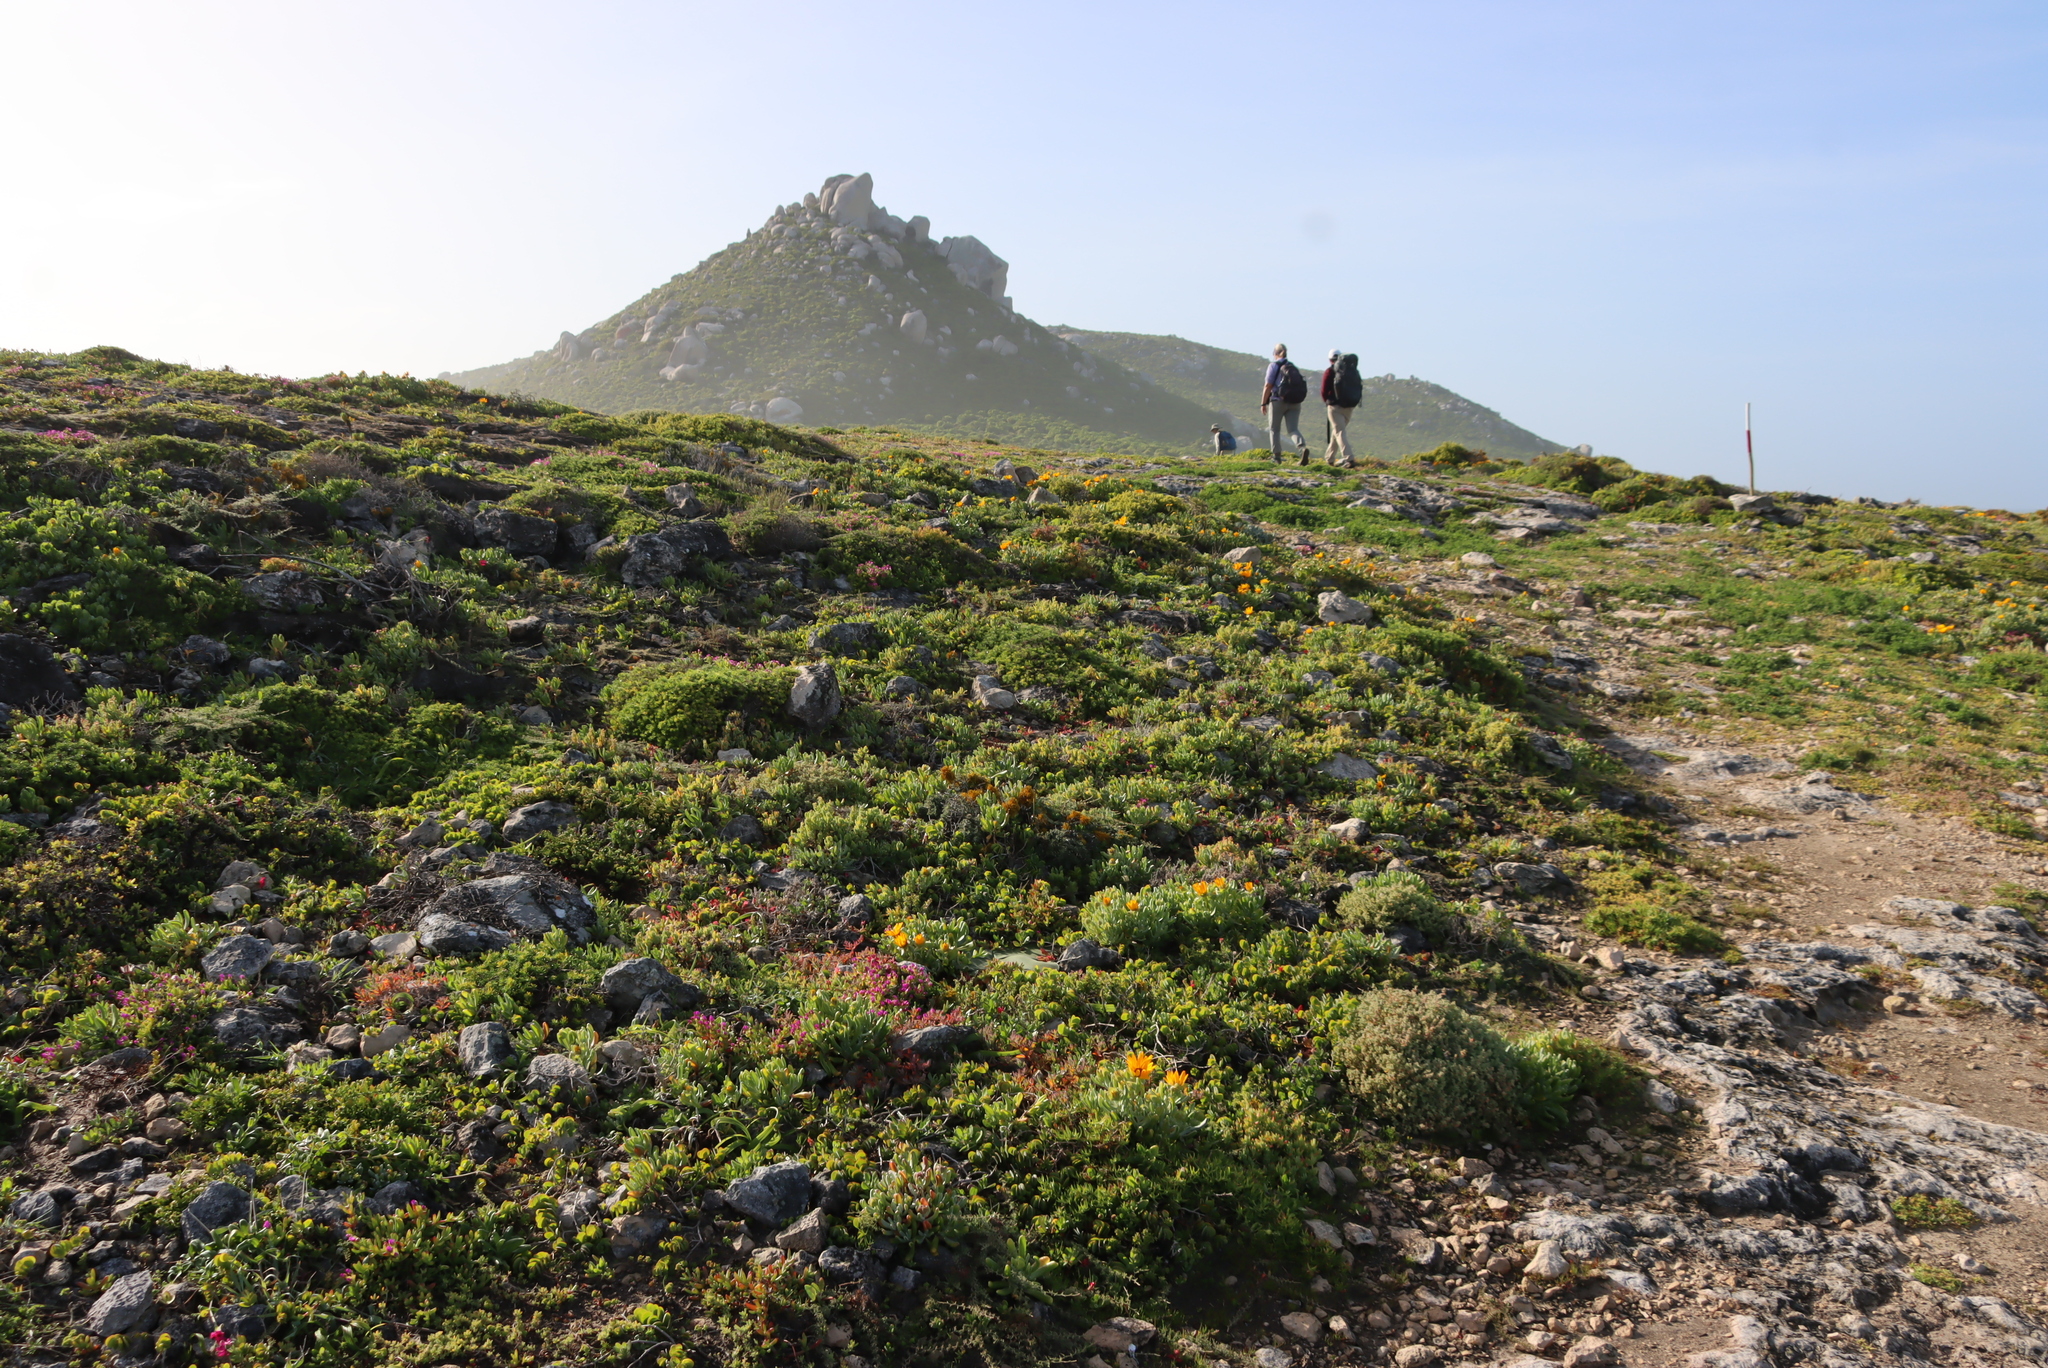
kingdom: Plantae
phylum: Tracheophyta
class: Magnoliopsida
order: Asterales
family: Asteraceae
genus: Didelta
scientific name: Didelta carnosa
